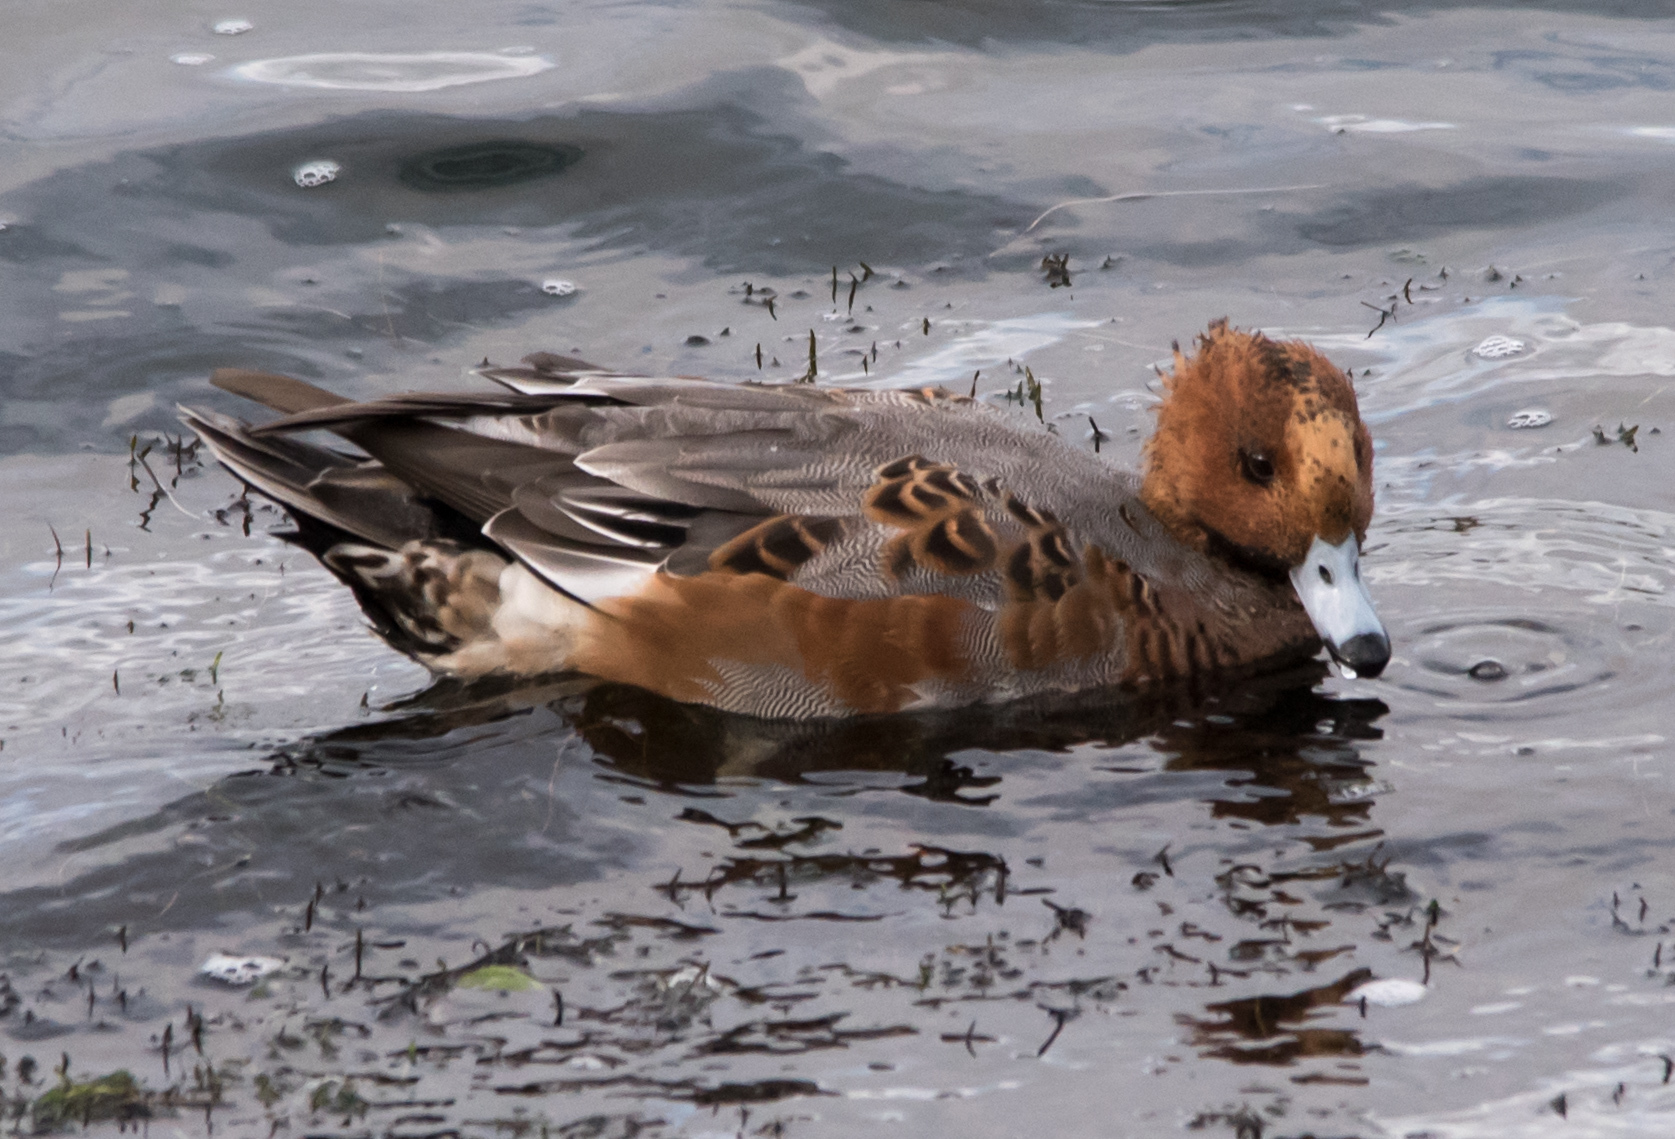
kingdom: Animalia
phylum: Chordata
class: Aves
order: Anseriformes
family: Anatidae
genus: Mareca
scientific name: Mareca penelope
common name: Eurasian wigeon
